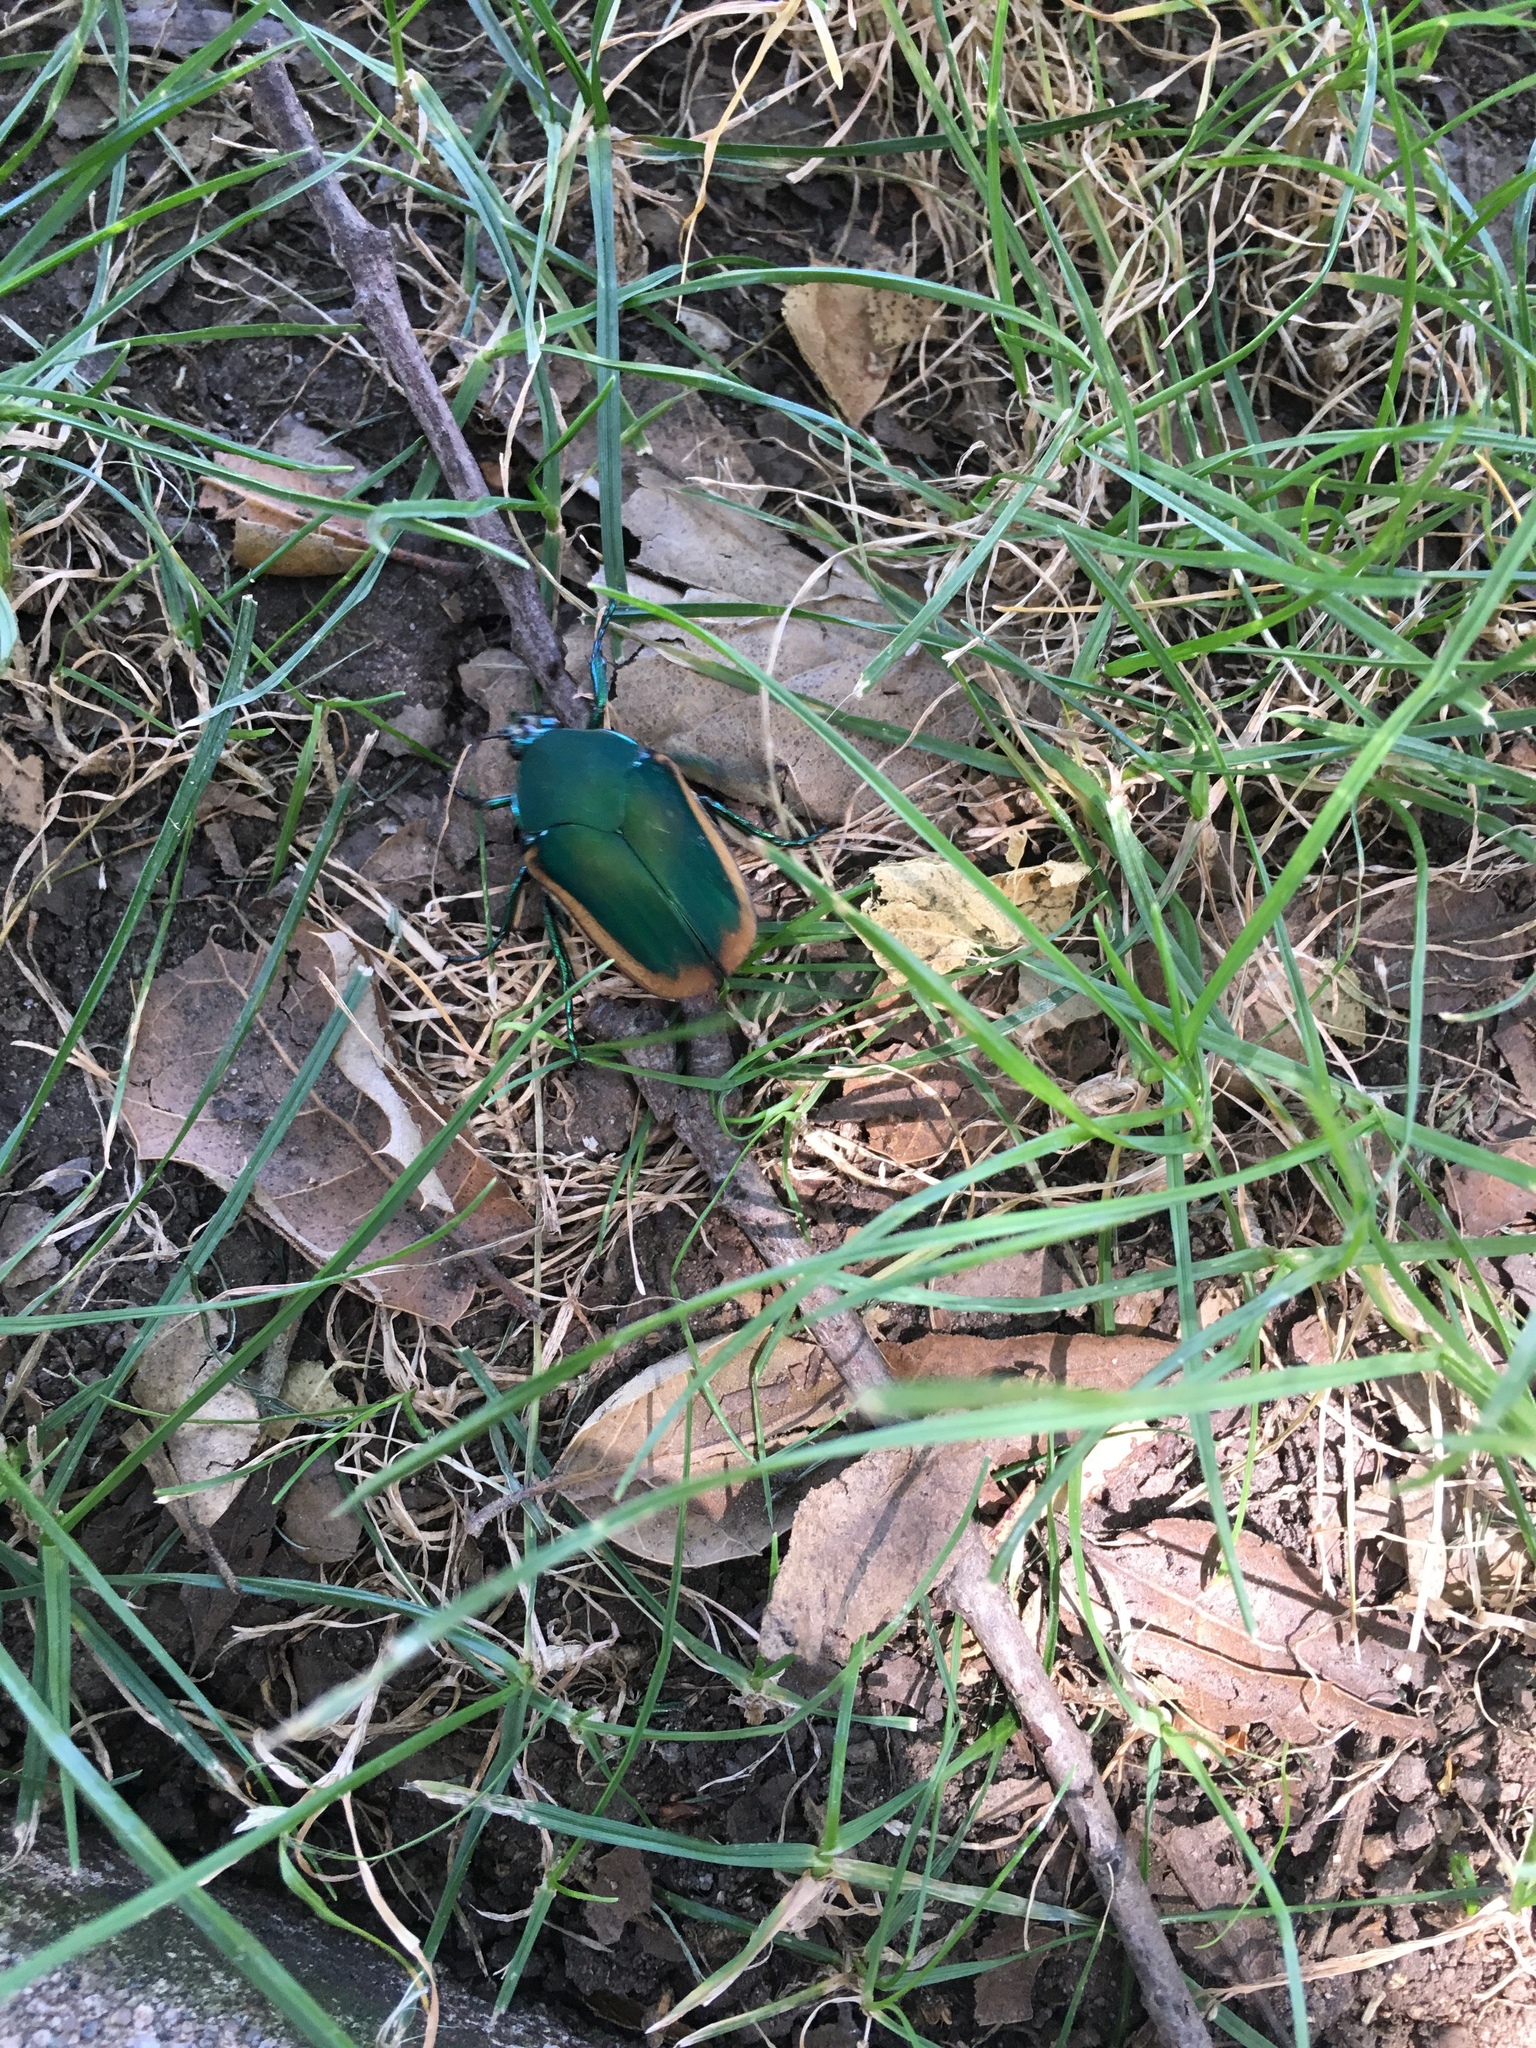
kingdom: Animalia
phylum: Arthropoda
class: Insecta
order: Coleoptera
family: Scarabaeidae
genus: Cotinis
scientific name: Cotinis mutabilis
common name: Figeater beetle
